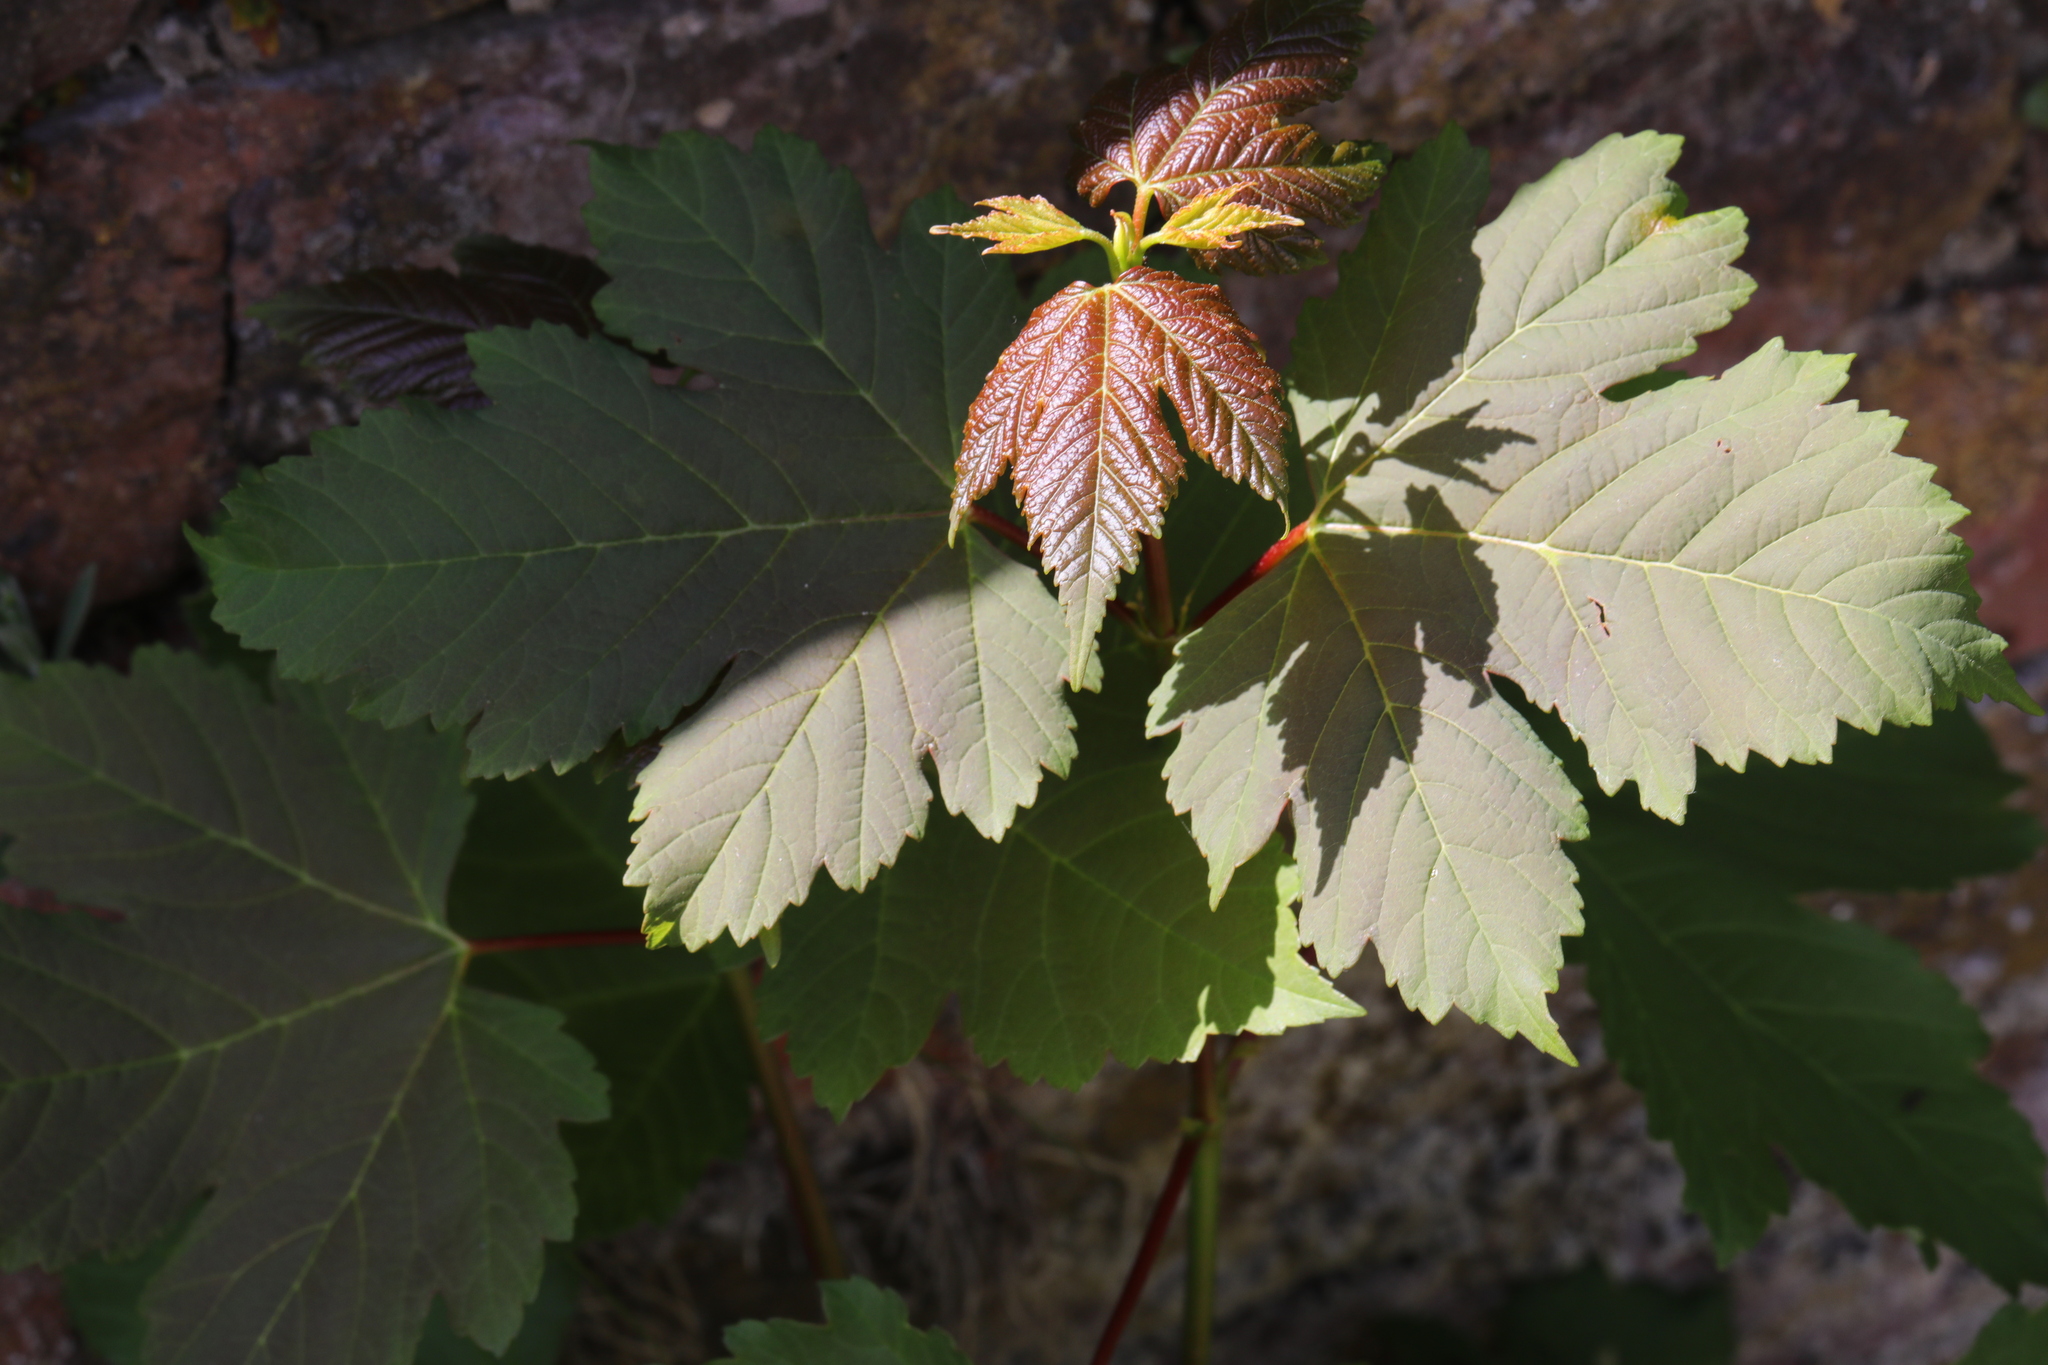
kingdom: Plantae
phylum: Tracheophyta
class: Magnoliopsida
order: Sapindales
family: Sapindaceae
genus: Acer
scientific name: Acer pseudoplatanus
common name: Sycamore
